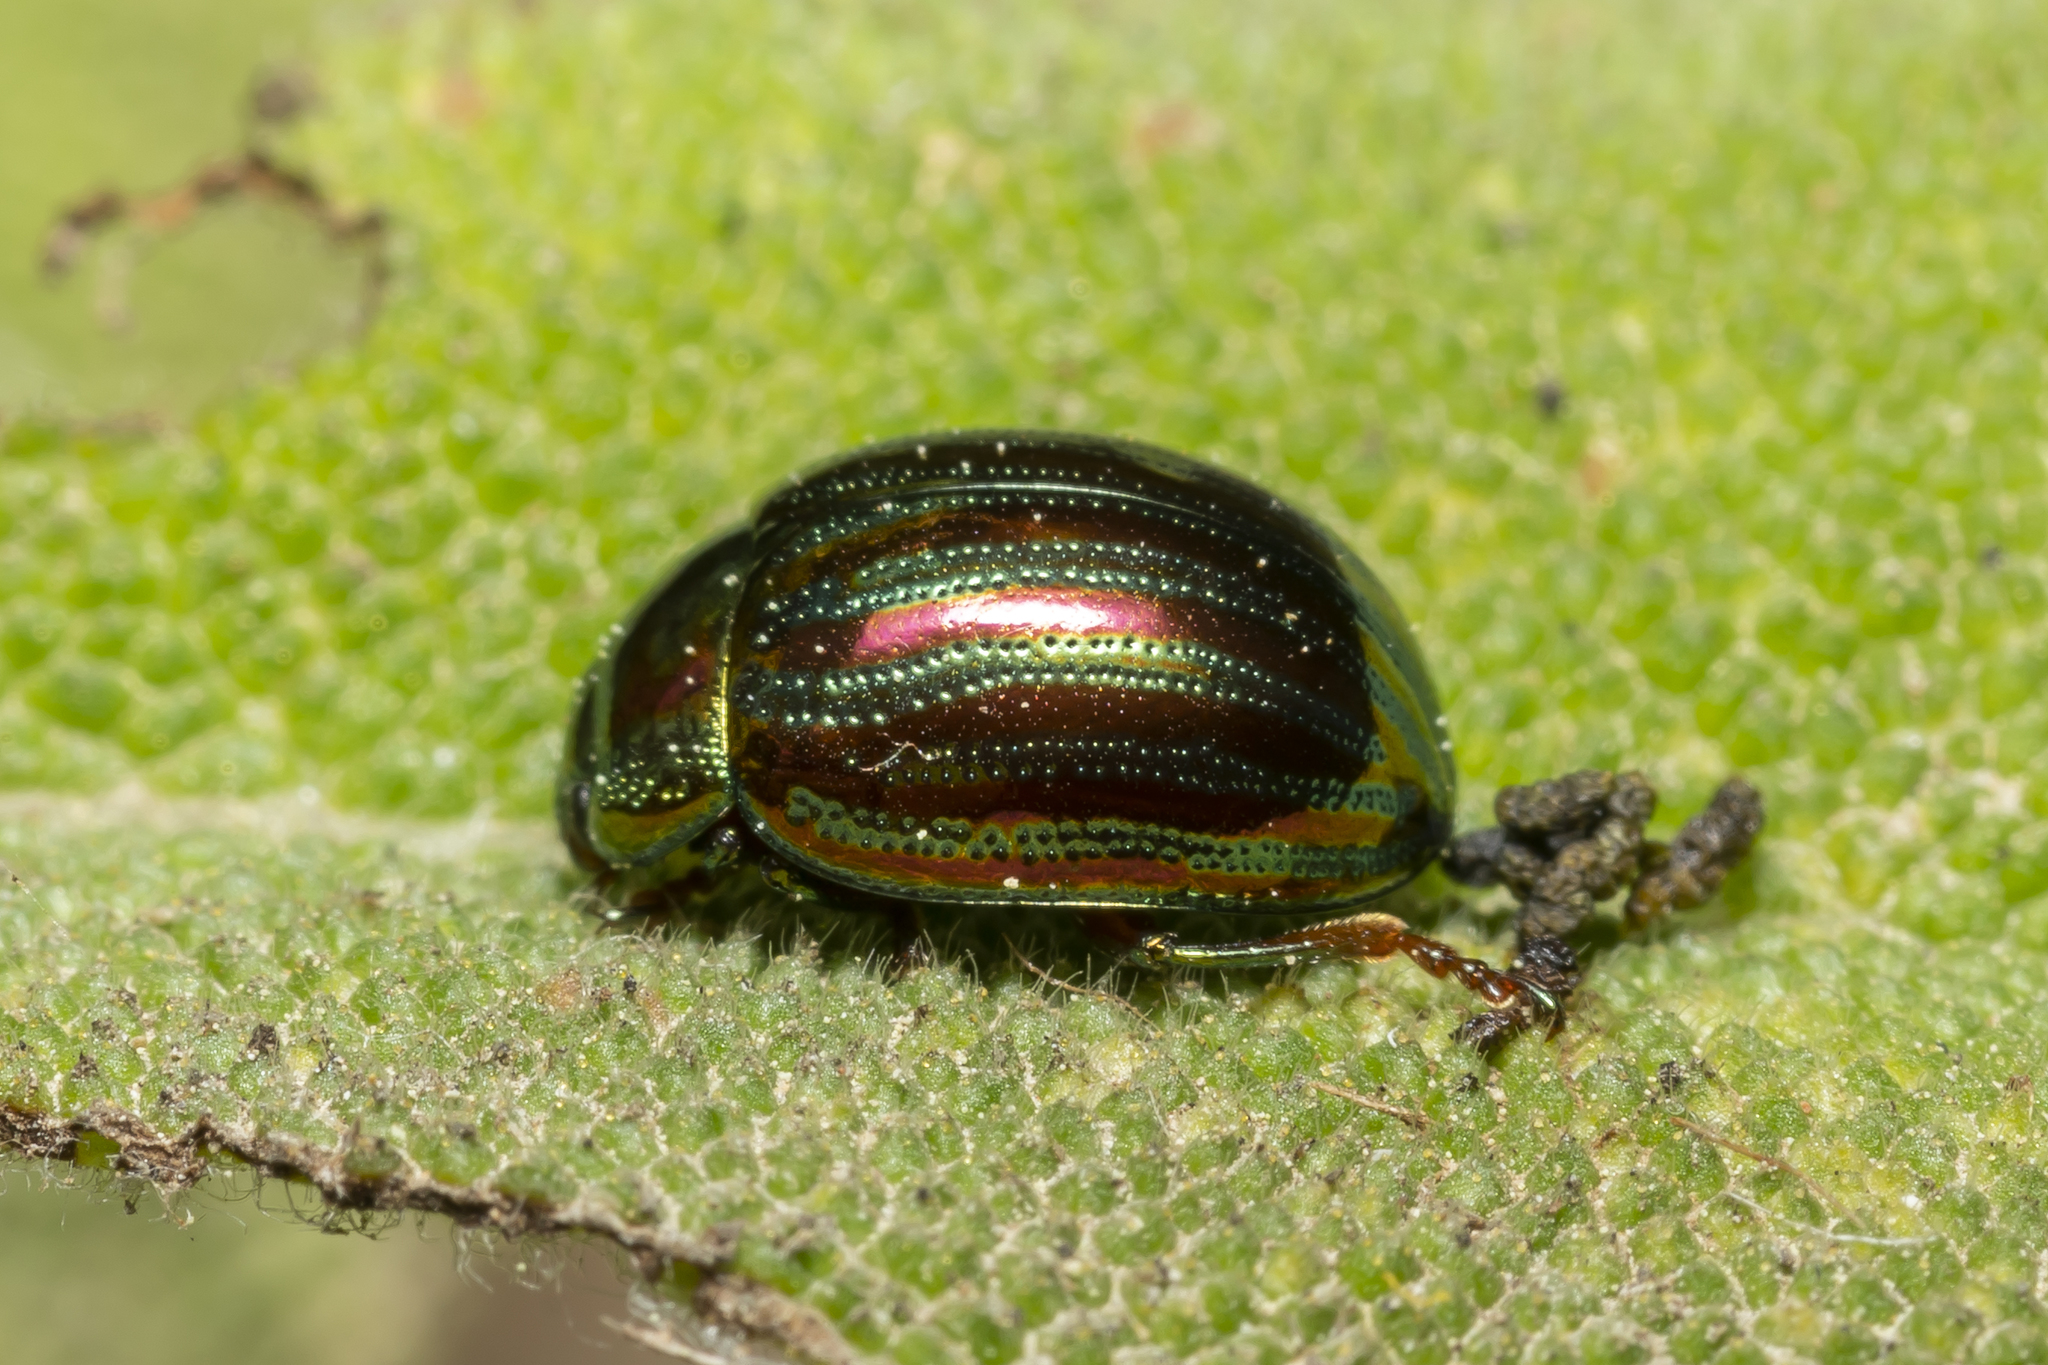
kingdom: Animalia
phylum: Arthropoda
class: Insecta
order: Coleoptera
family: Chrysomelidae
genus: Chrysolina
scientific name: Chrysolina americana
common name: Rosemary beetle
